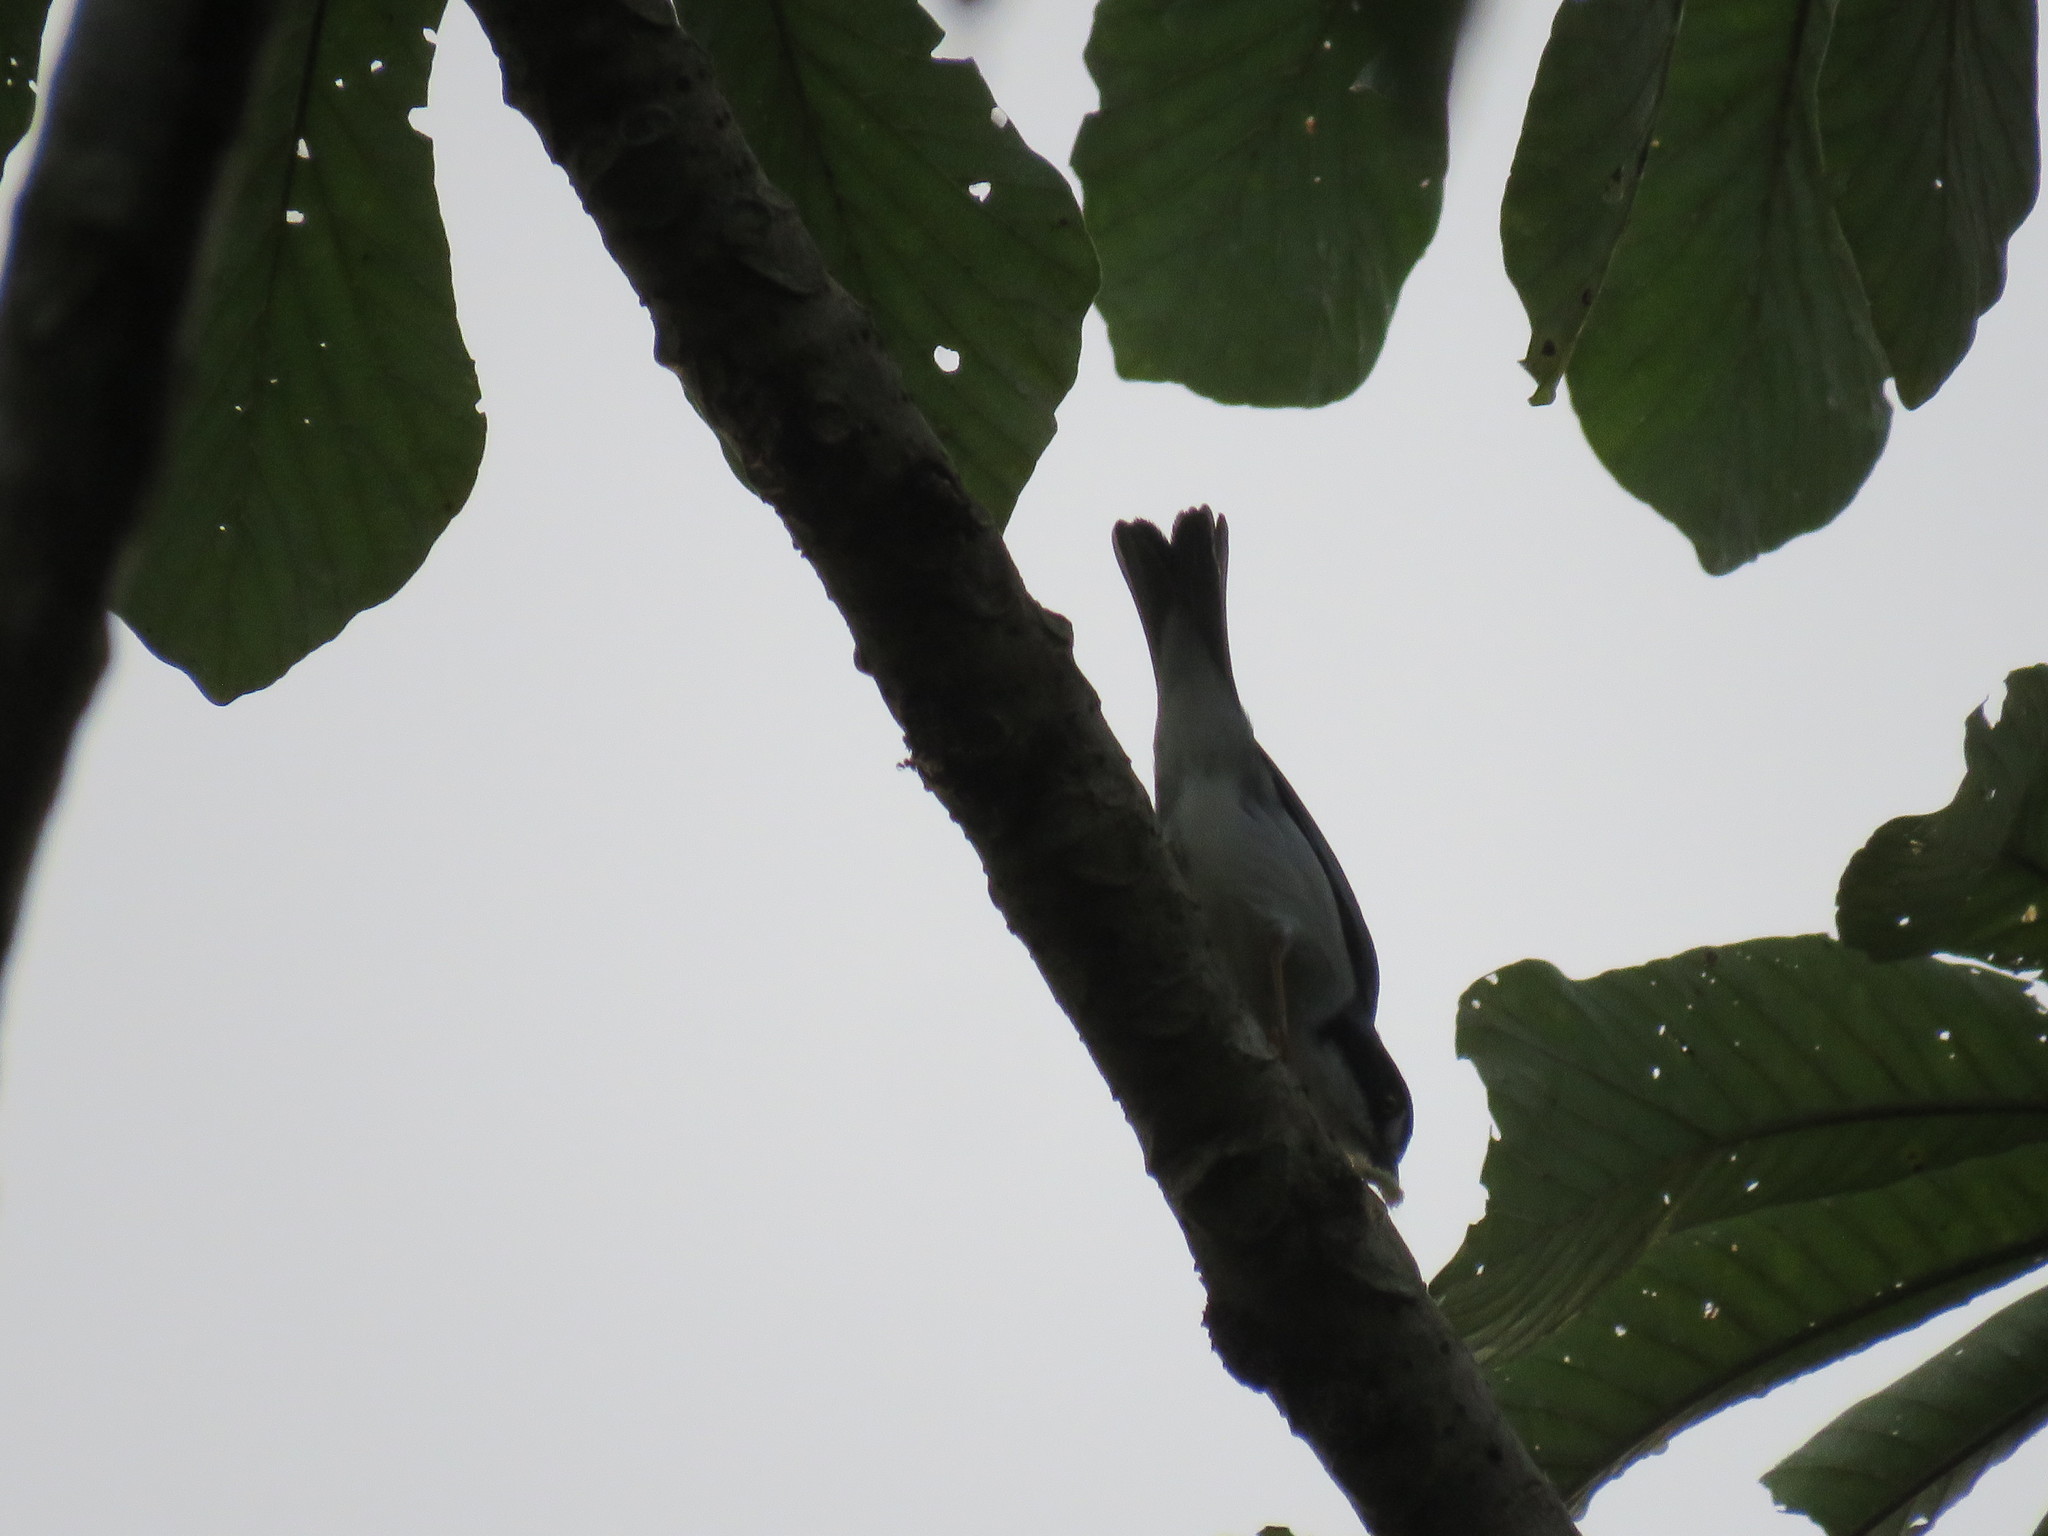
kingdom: Animalia
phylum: Chordata
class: Aves
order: Passeriformes
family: Thraupidae
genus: Nemosia
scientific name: Nemosia pileata
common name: Hooded tanager
